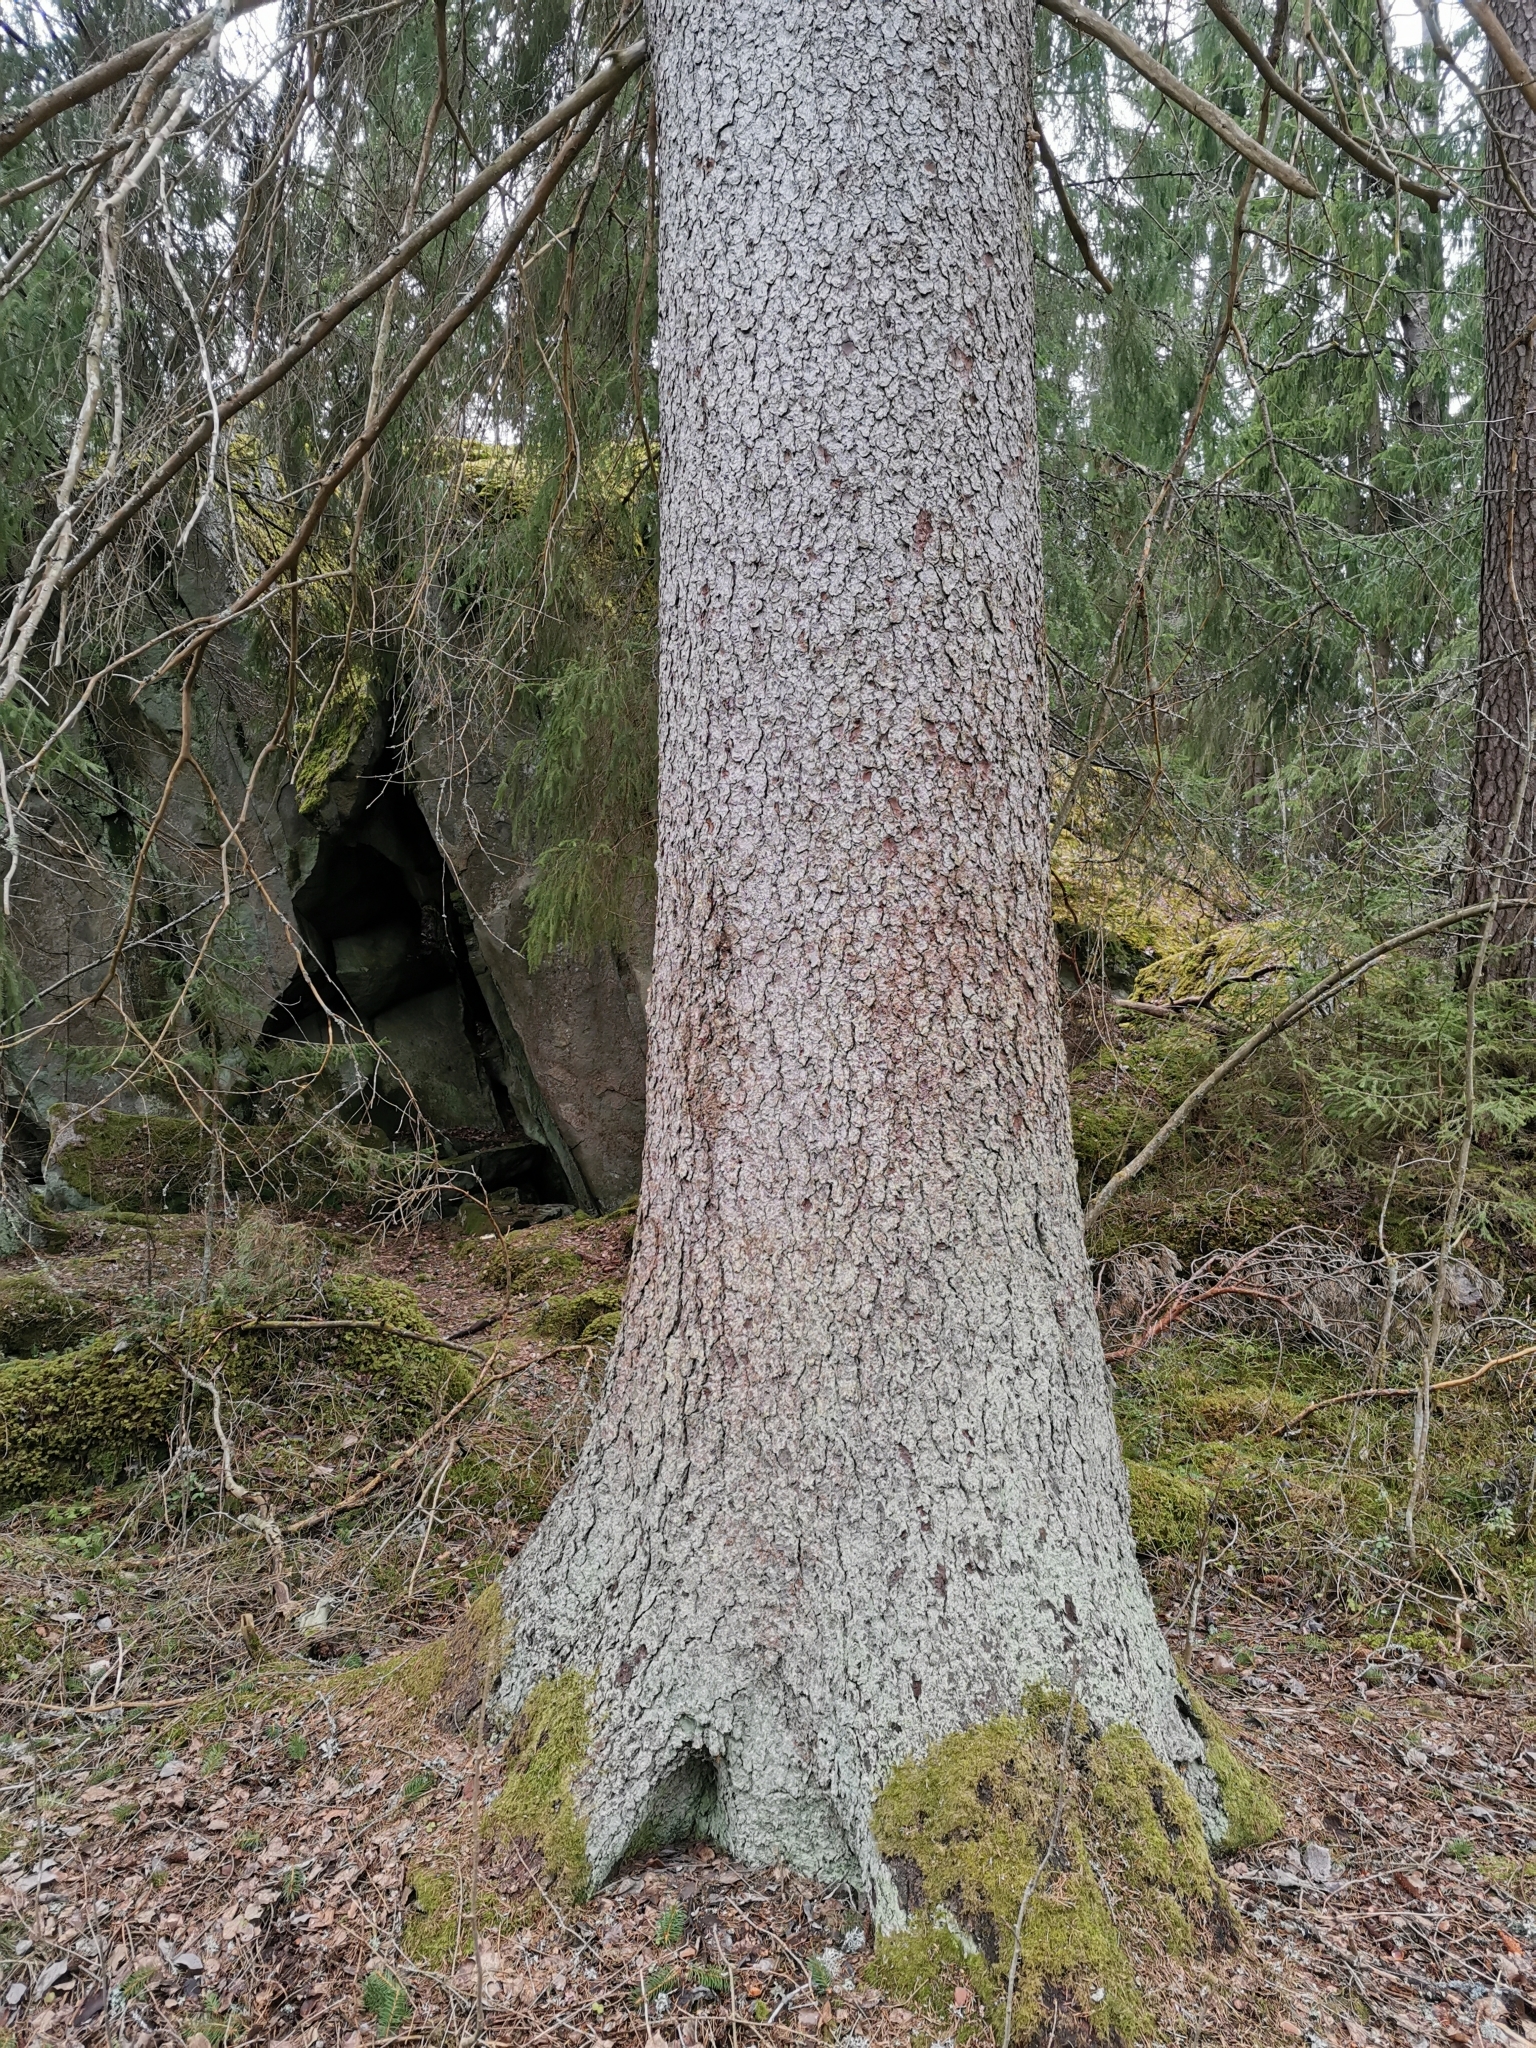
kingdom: Animalia
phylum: Chordata
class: Mammalia
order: Rodentia
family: Sciuridae
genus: Pteromys
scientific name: Pteromys volans
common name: Siberian flying squirrel
